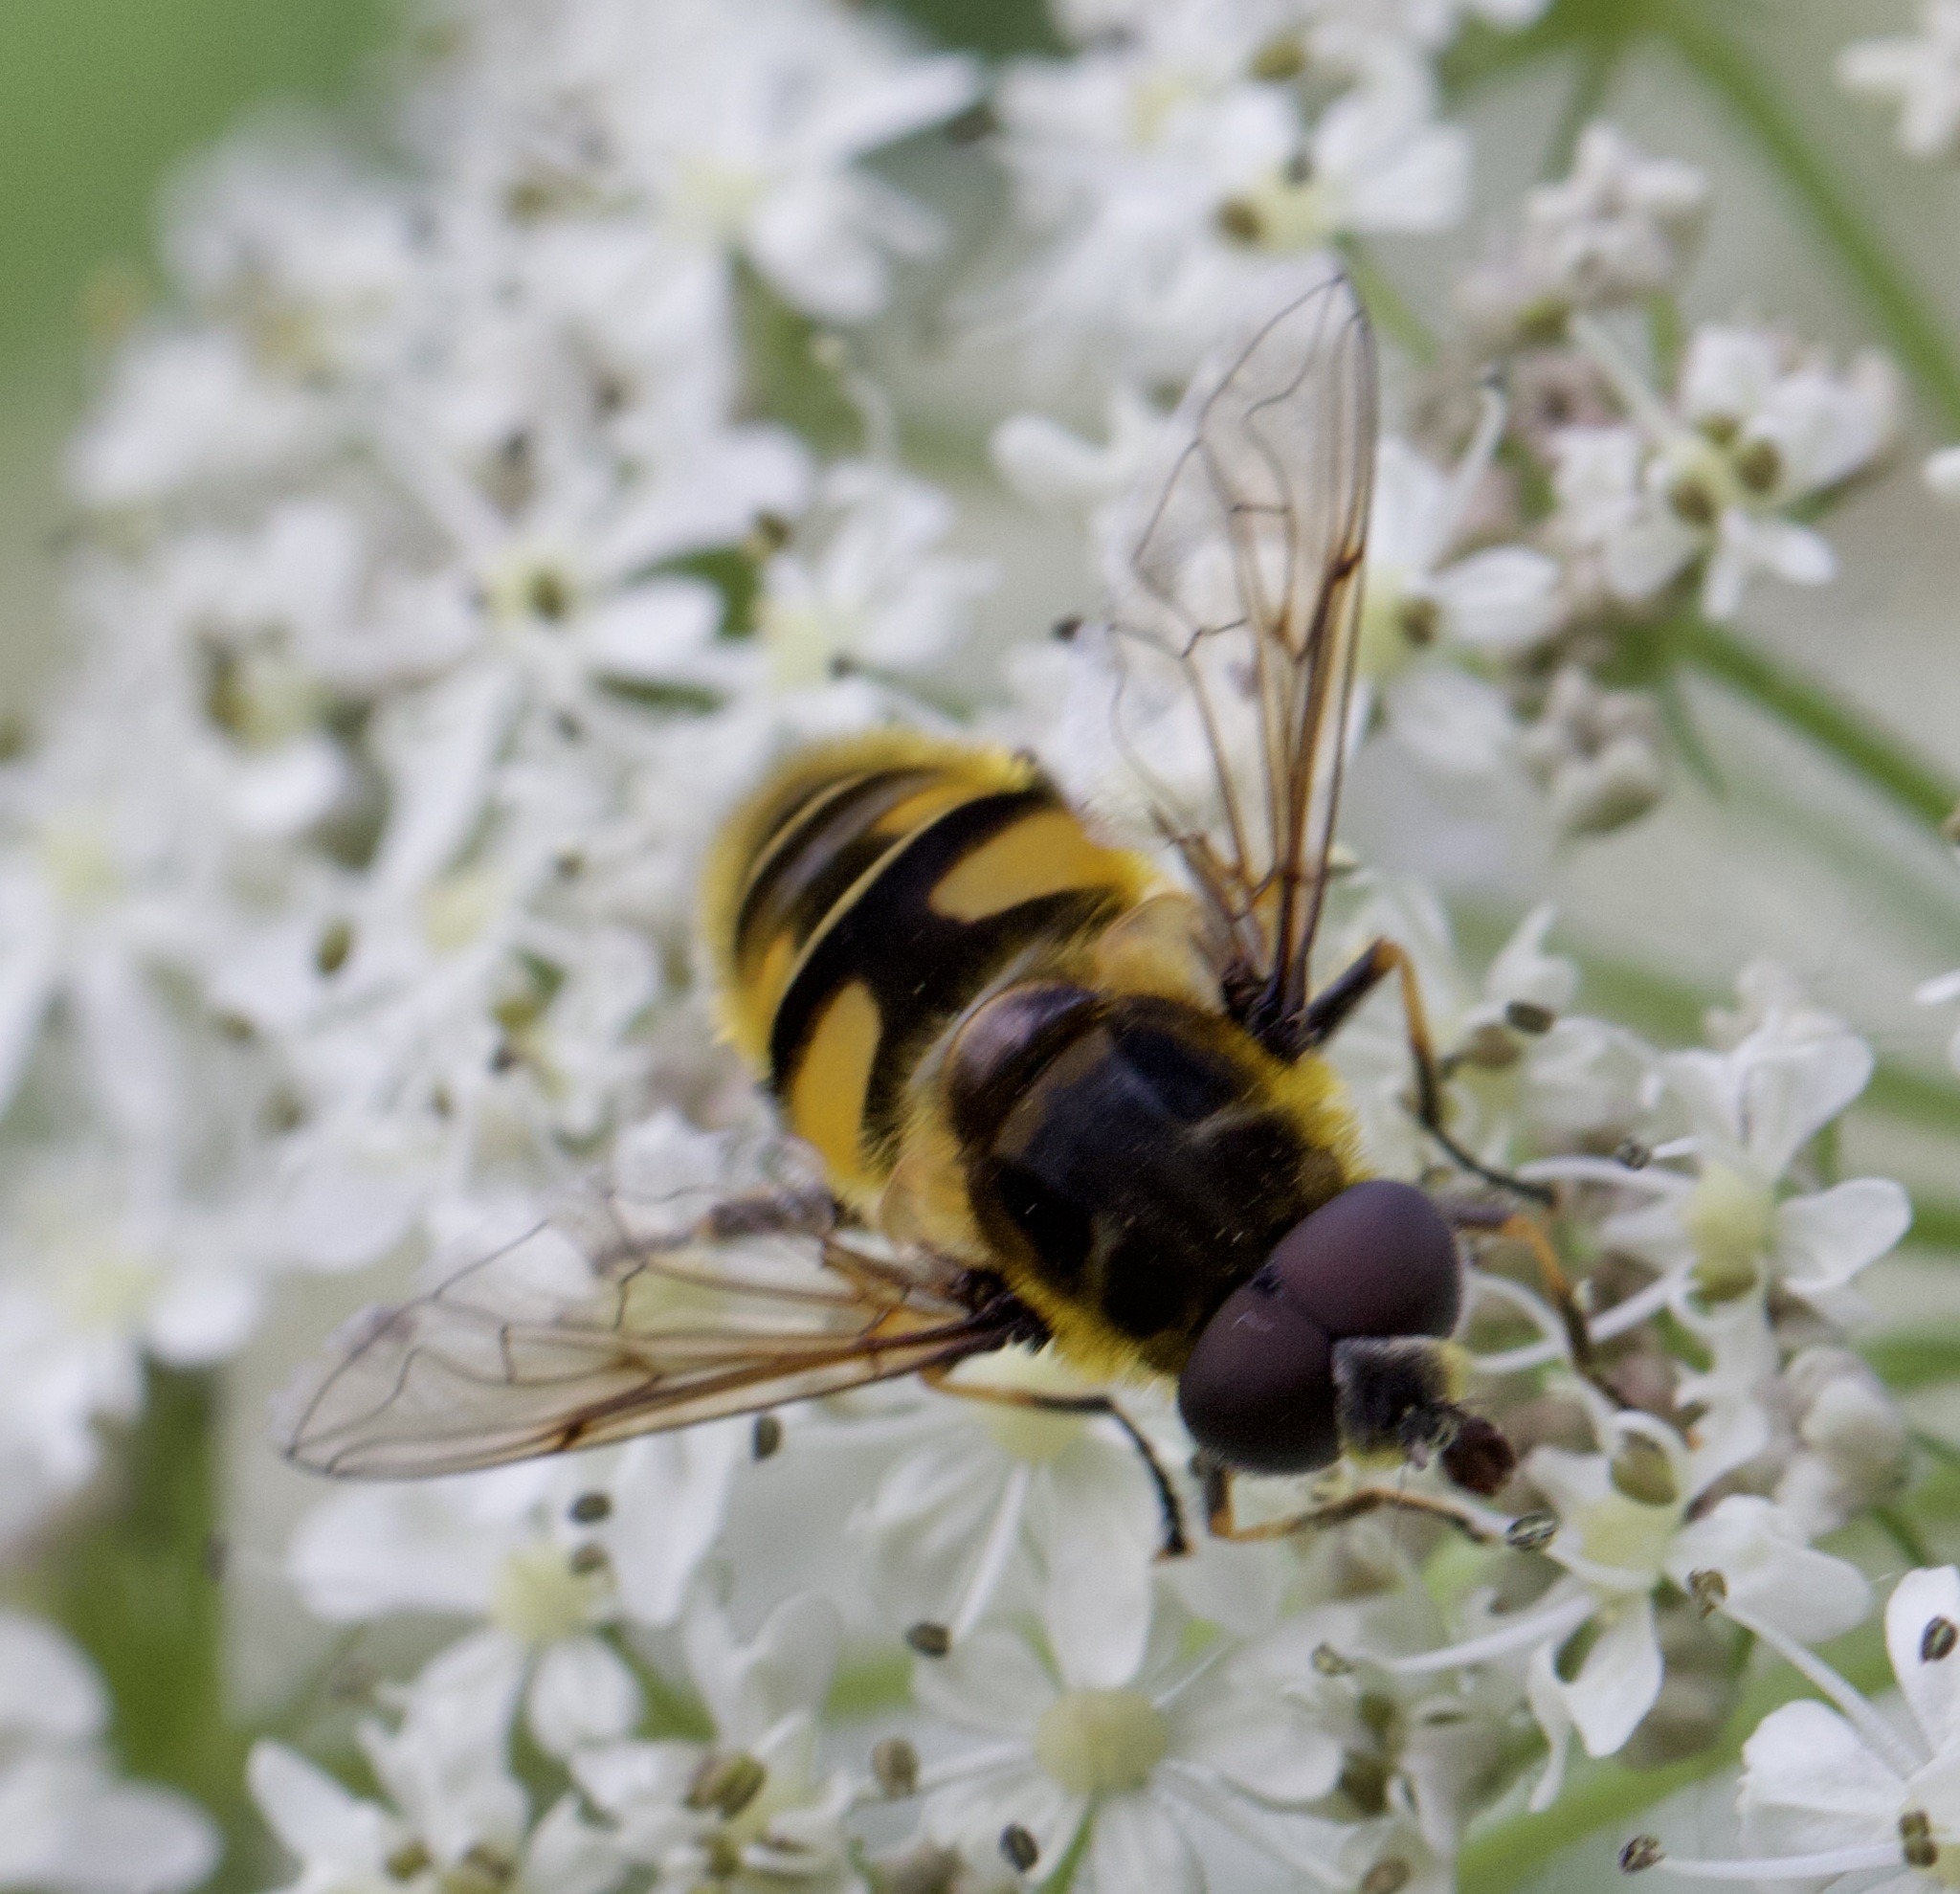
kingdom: Animalia
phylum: Arthropoda
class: Insecta
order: Diptera
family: Syrphidae
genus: Myathropa
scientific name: Myathropa florea
